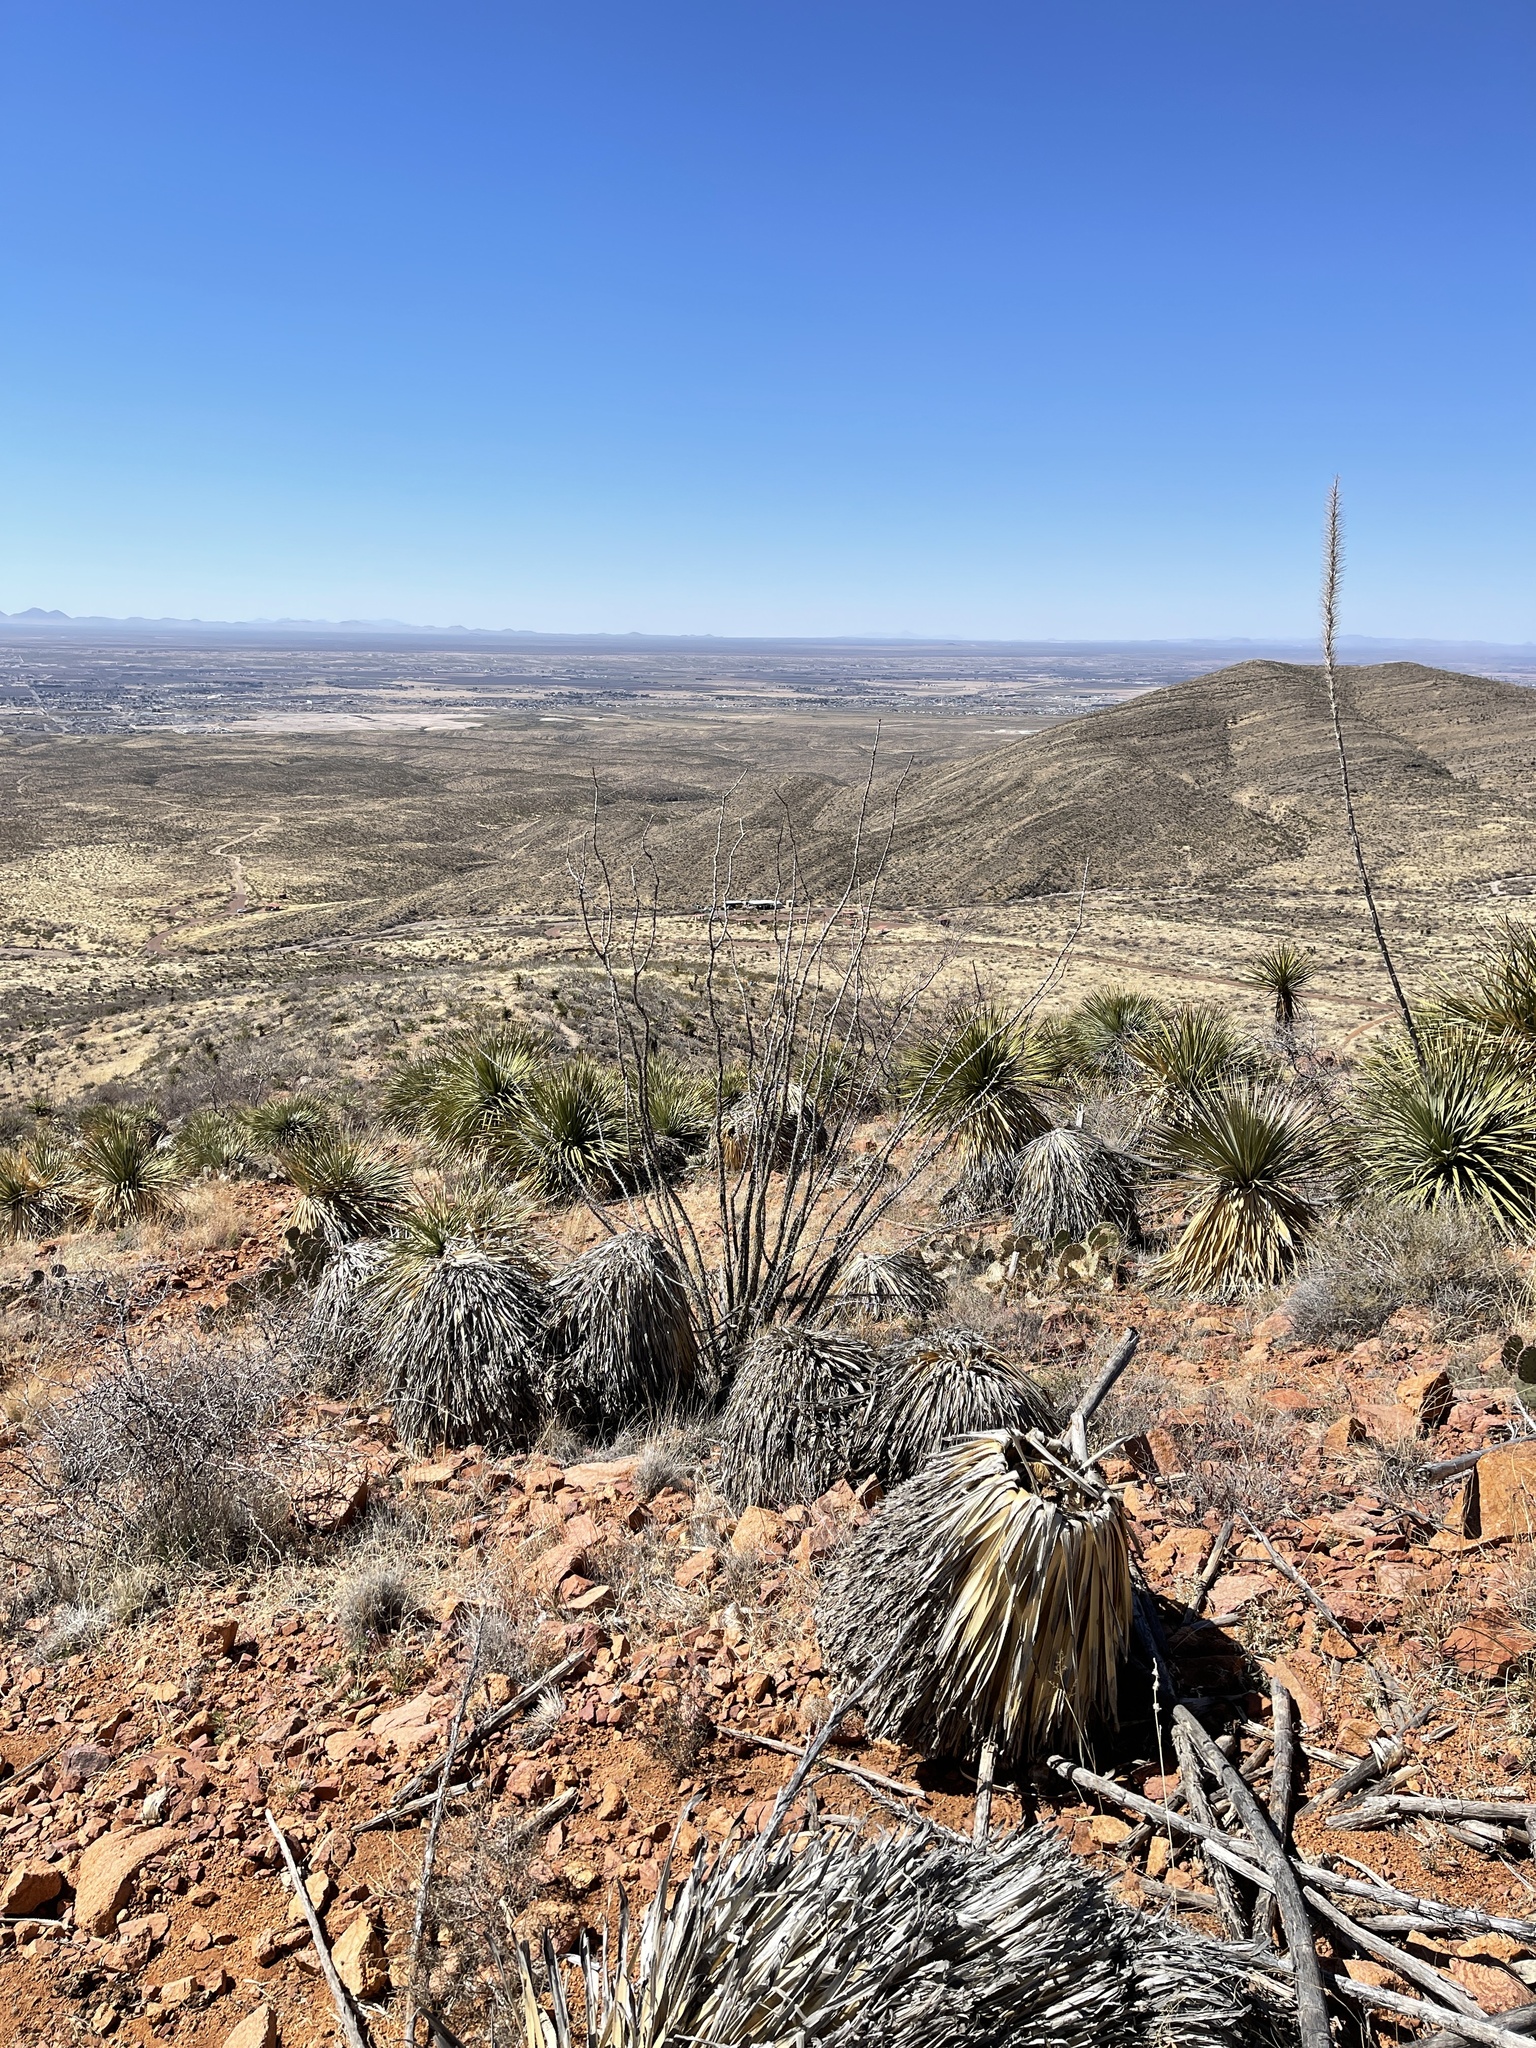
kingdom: Plantae
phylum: Tracheophyta
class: Magnoliopsida
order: Ericales
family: Fouquieriaceae
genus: Fouquieria
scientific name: Fouquieria splendens
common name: Vine-cactus
